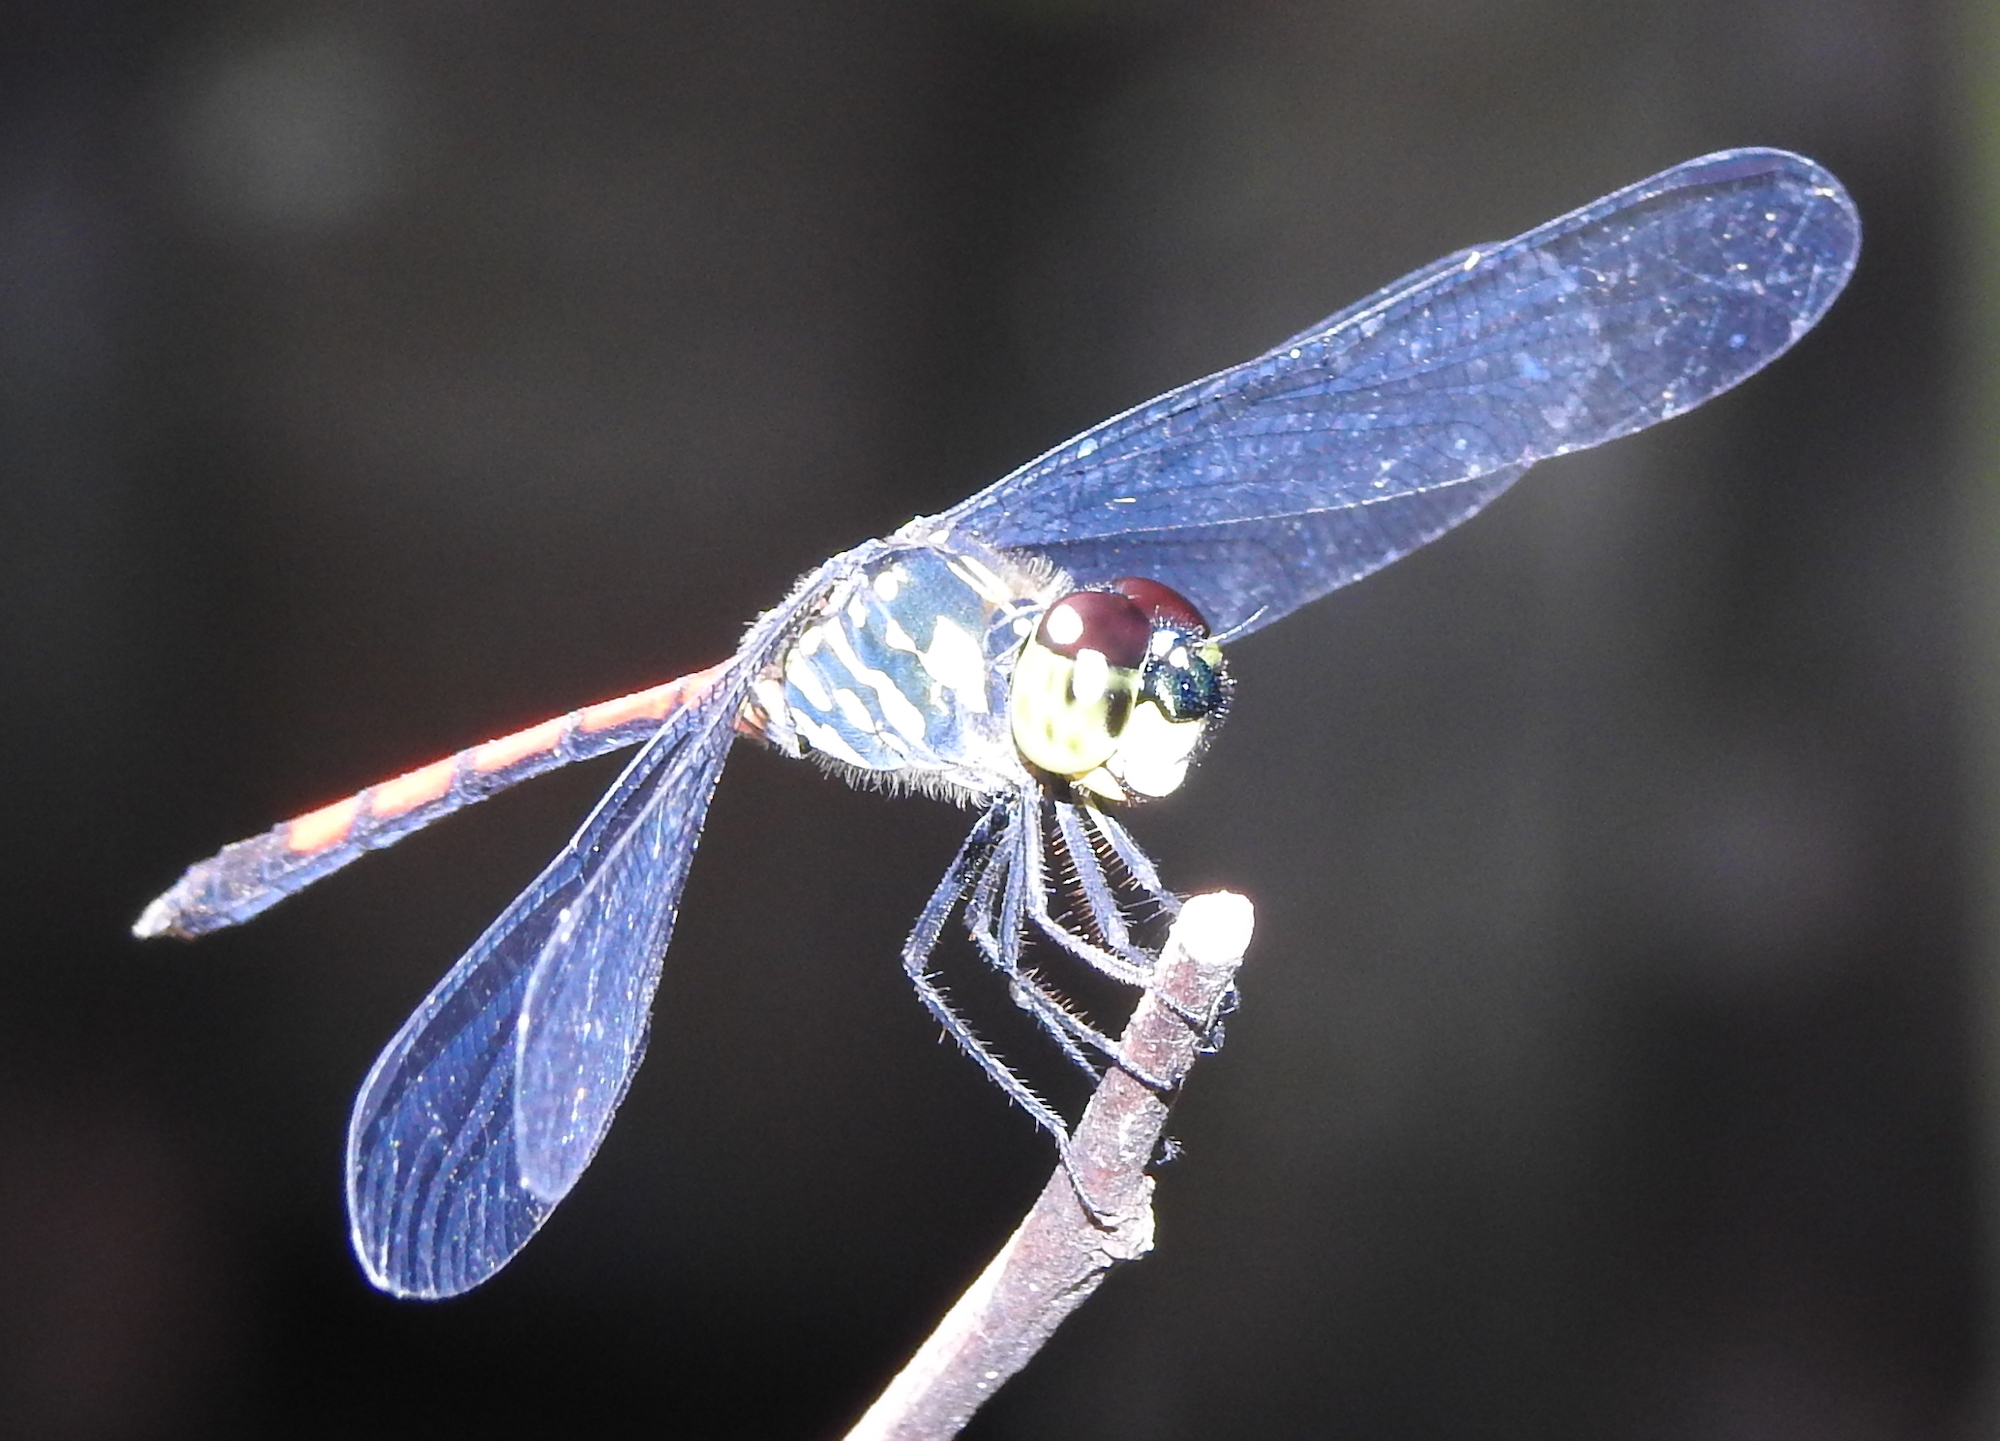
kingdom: Animalia
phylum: Arthropoda
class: Insecta
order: Odonata
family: Libellulidae
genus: Agrionoptera
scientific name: Agrionoptera insignis
